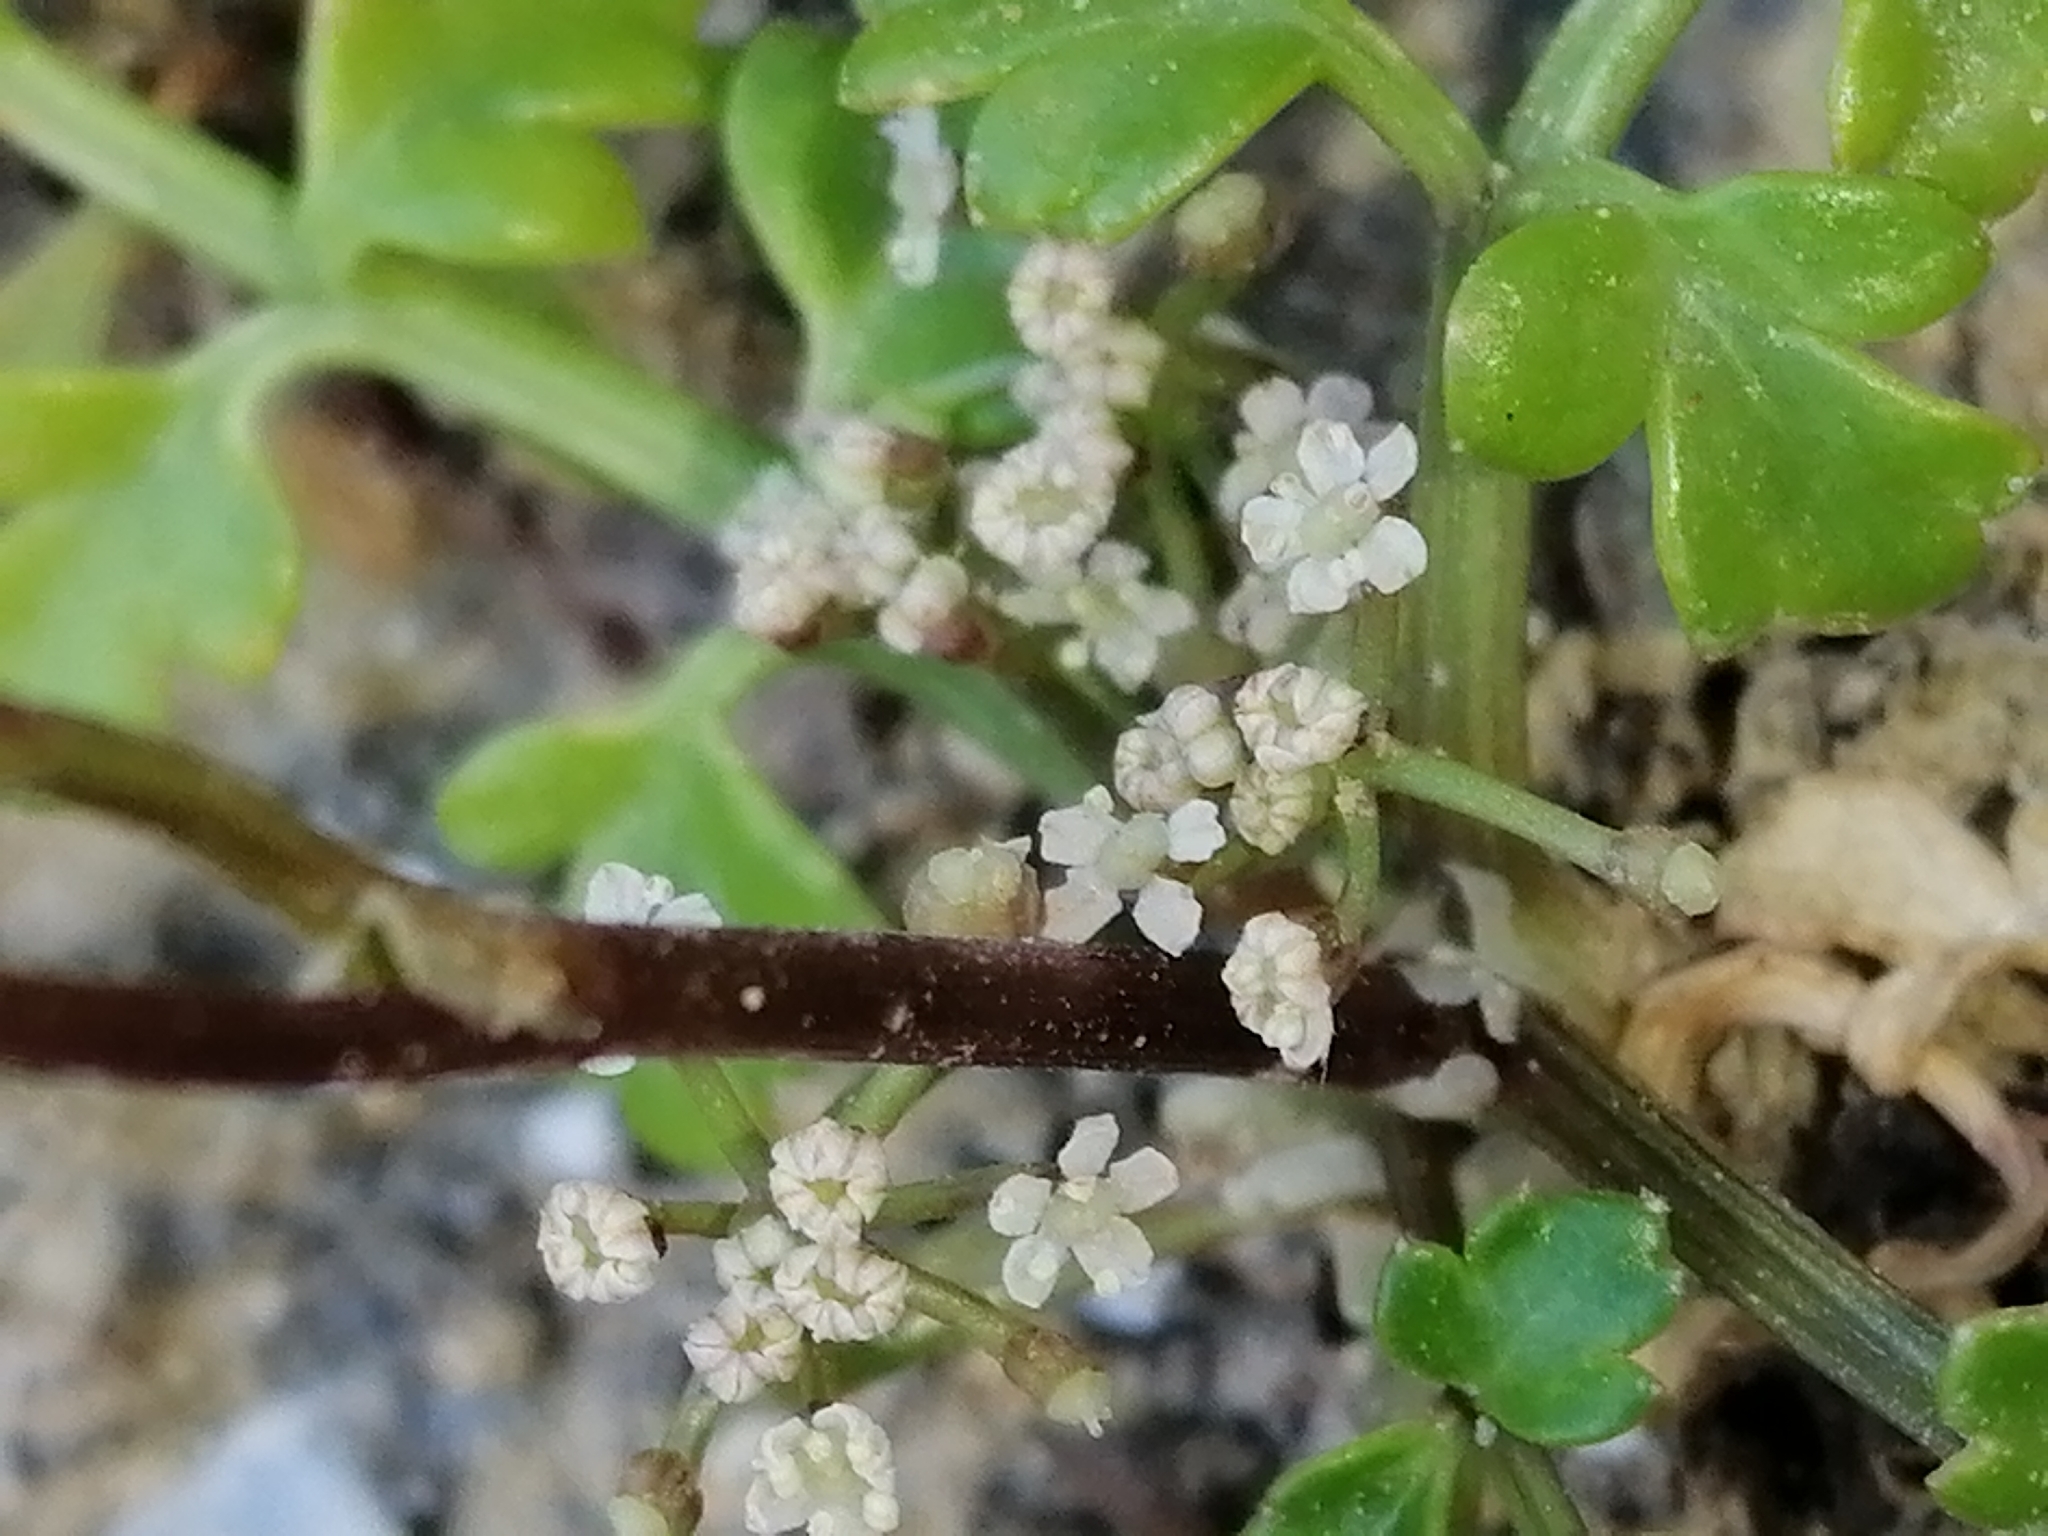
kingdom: Plantae
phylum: Tracheophyta
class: Magnoliopsida
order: Apiales
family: Apiaceae
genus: Apium
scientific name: Apium prostratum
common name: Prostrate marshwort
